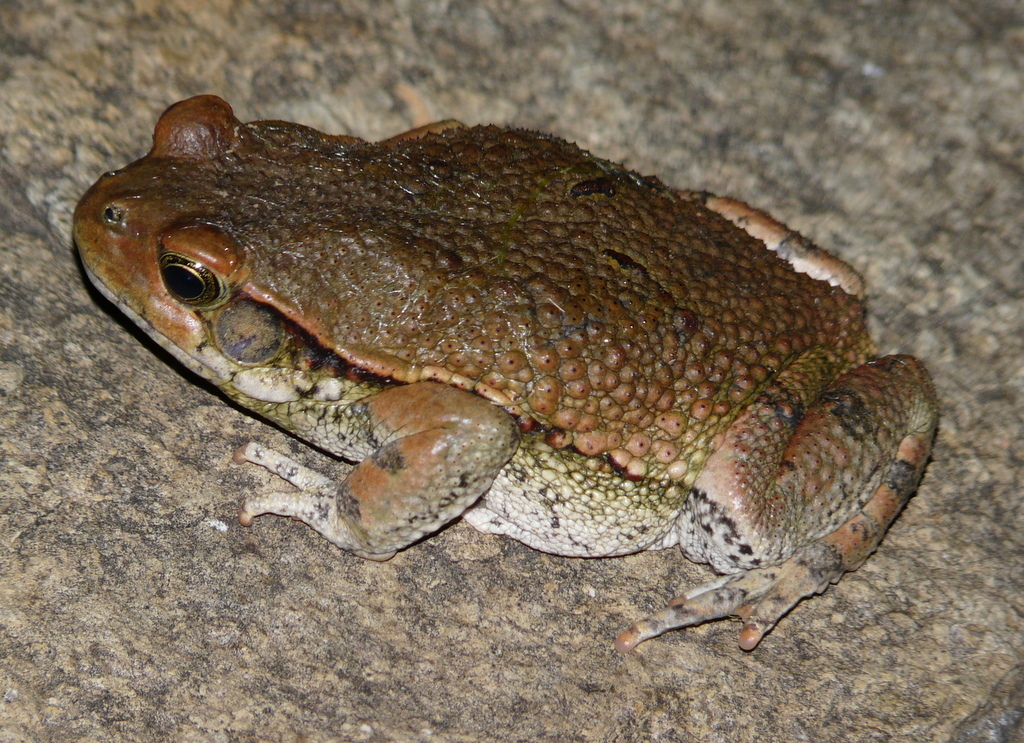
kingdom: Animalia
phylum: Chordata
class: Amphibia
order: Anura
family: Bufonidae
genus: Schismaderma
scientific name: Schismaderma carens
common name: African split-skin toad
